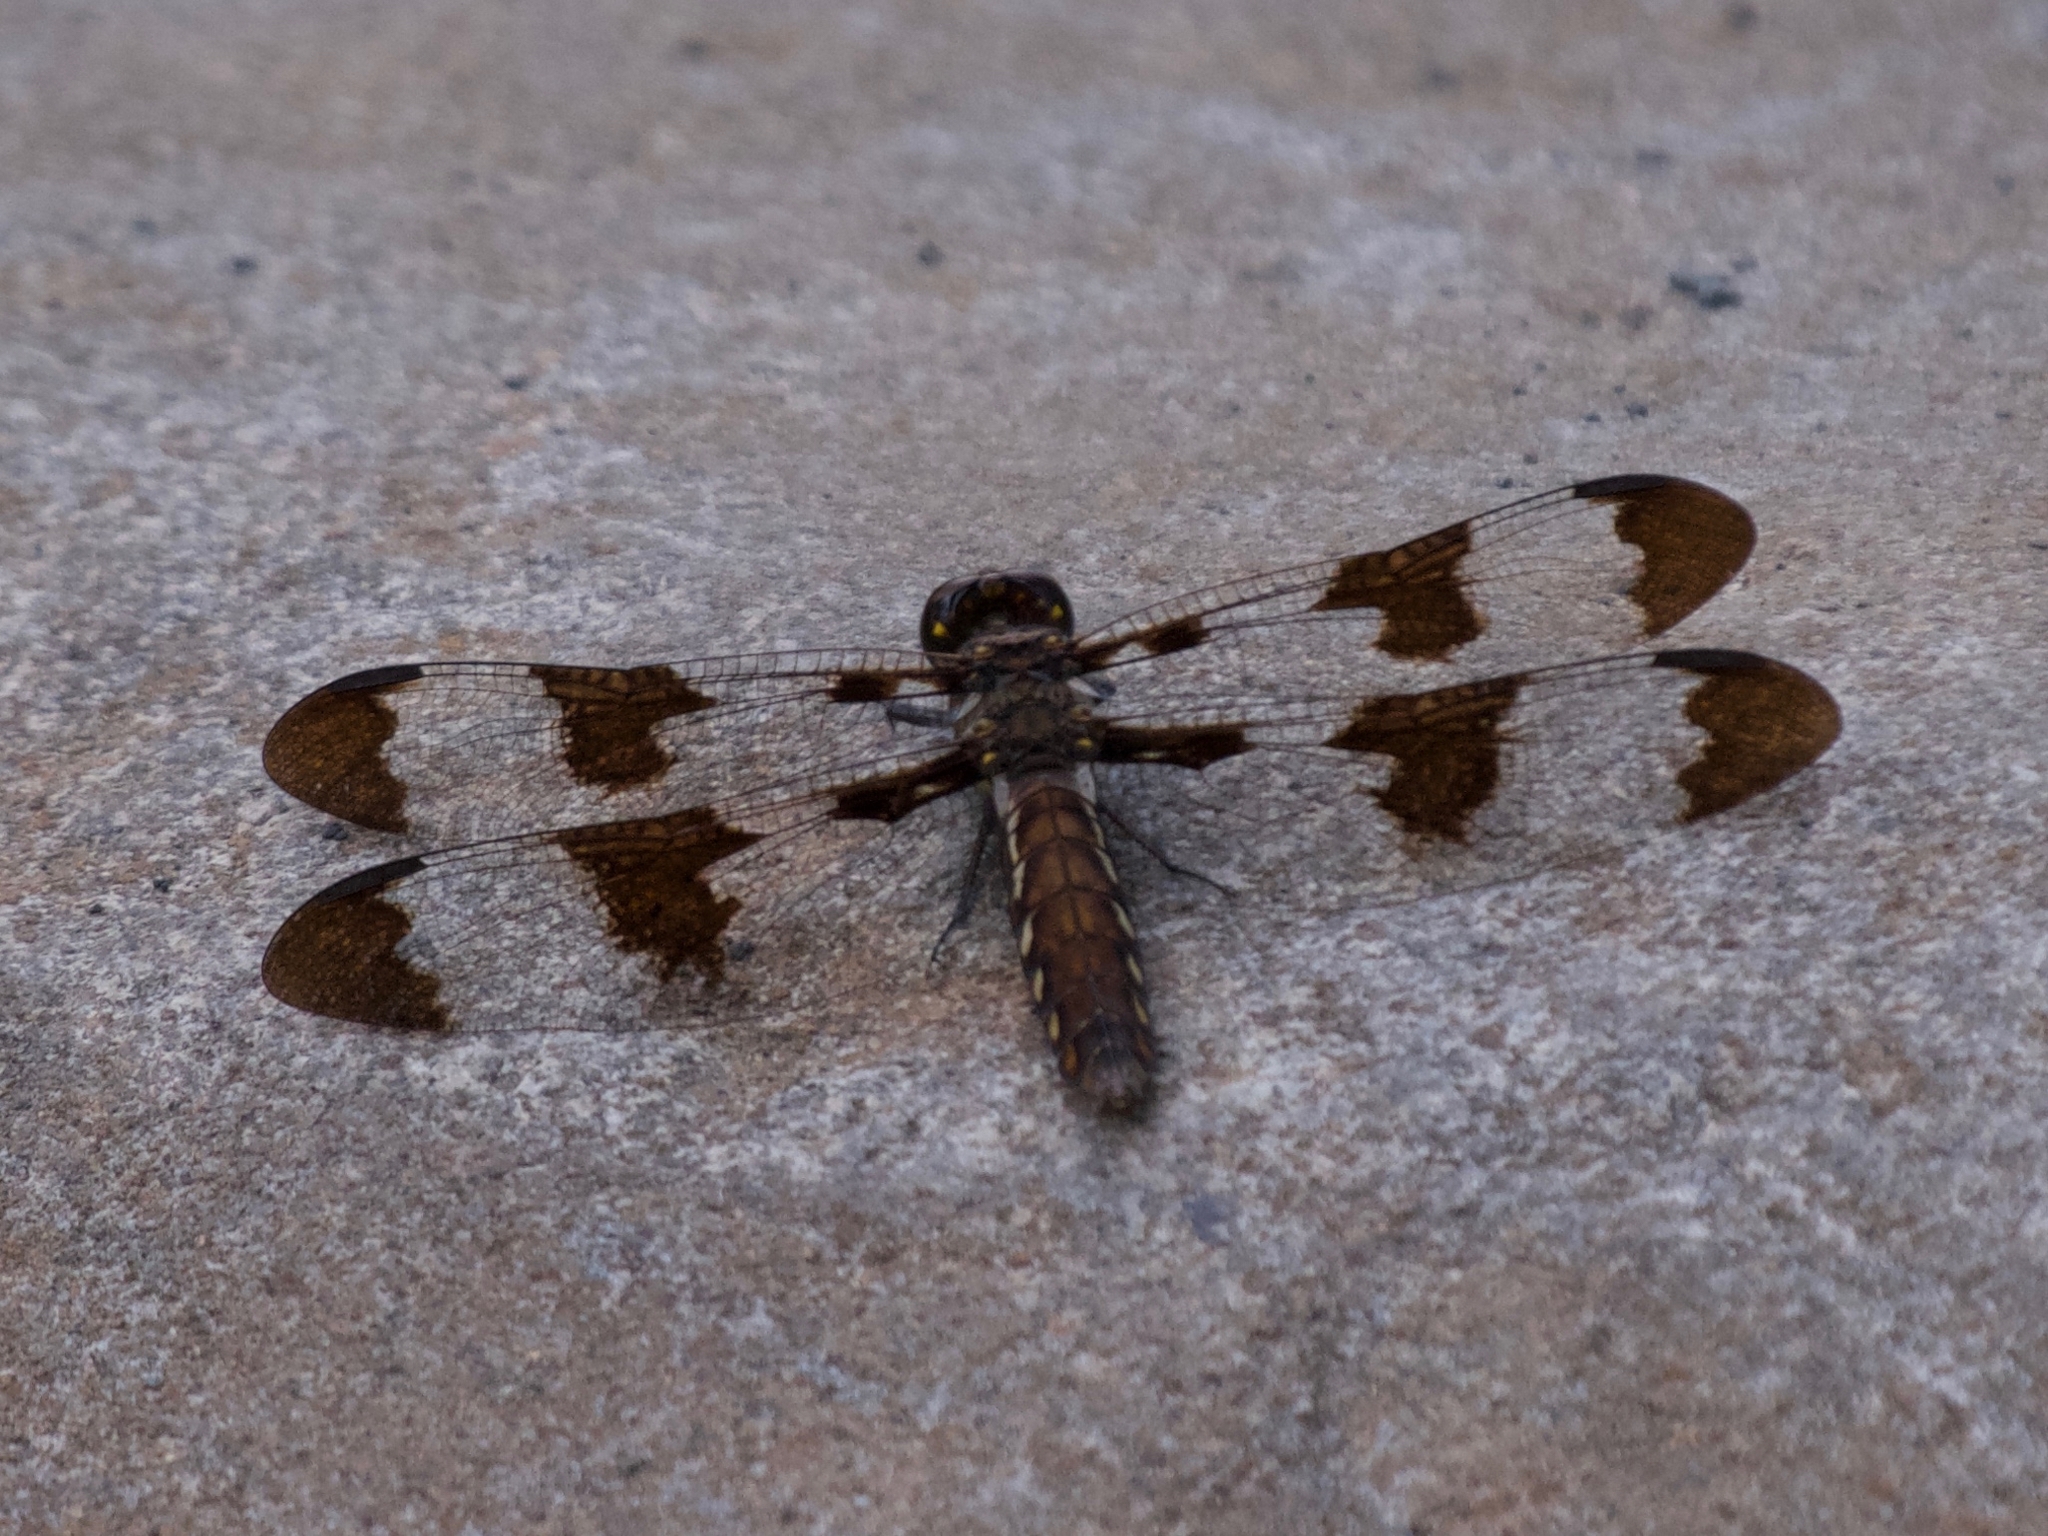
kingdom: Animalia
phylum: Arthropoda
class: Insecta
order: Odonata
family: Libellulidae
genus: Plathemis
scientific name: Plathemis lydia
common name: Common whitetail
